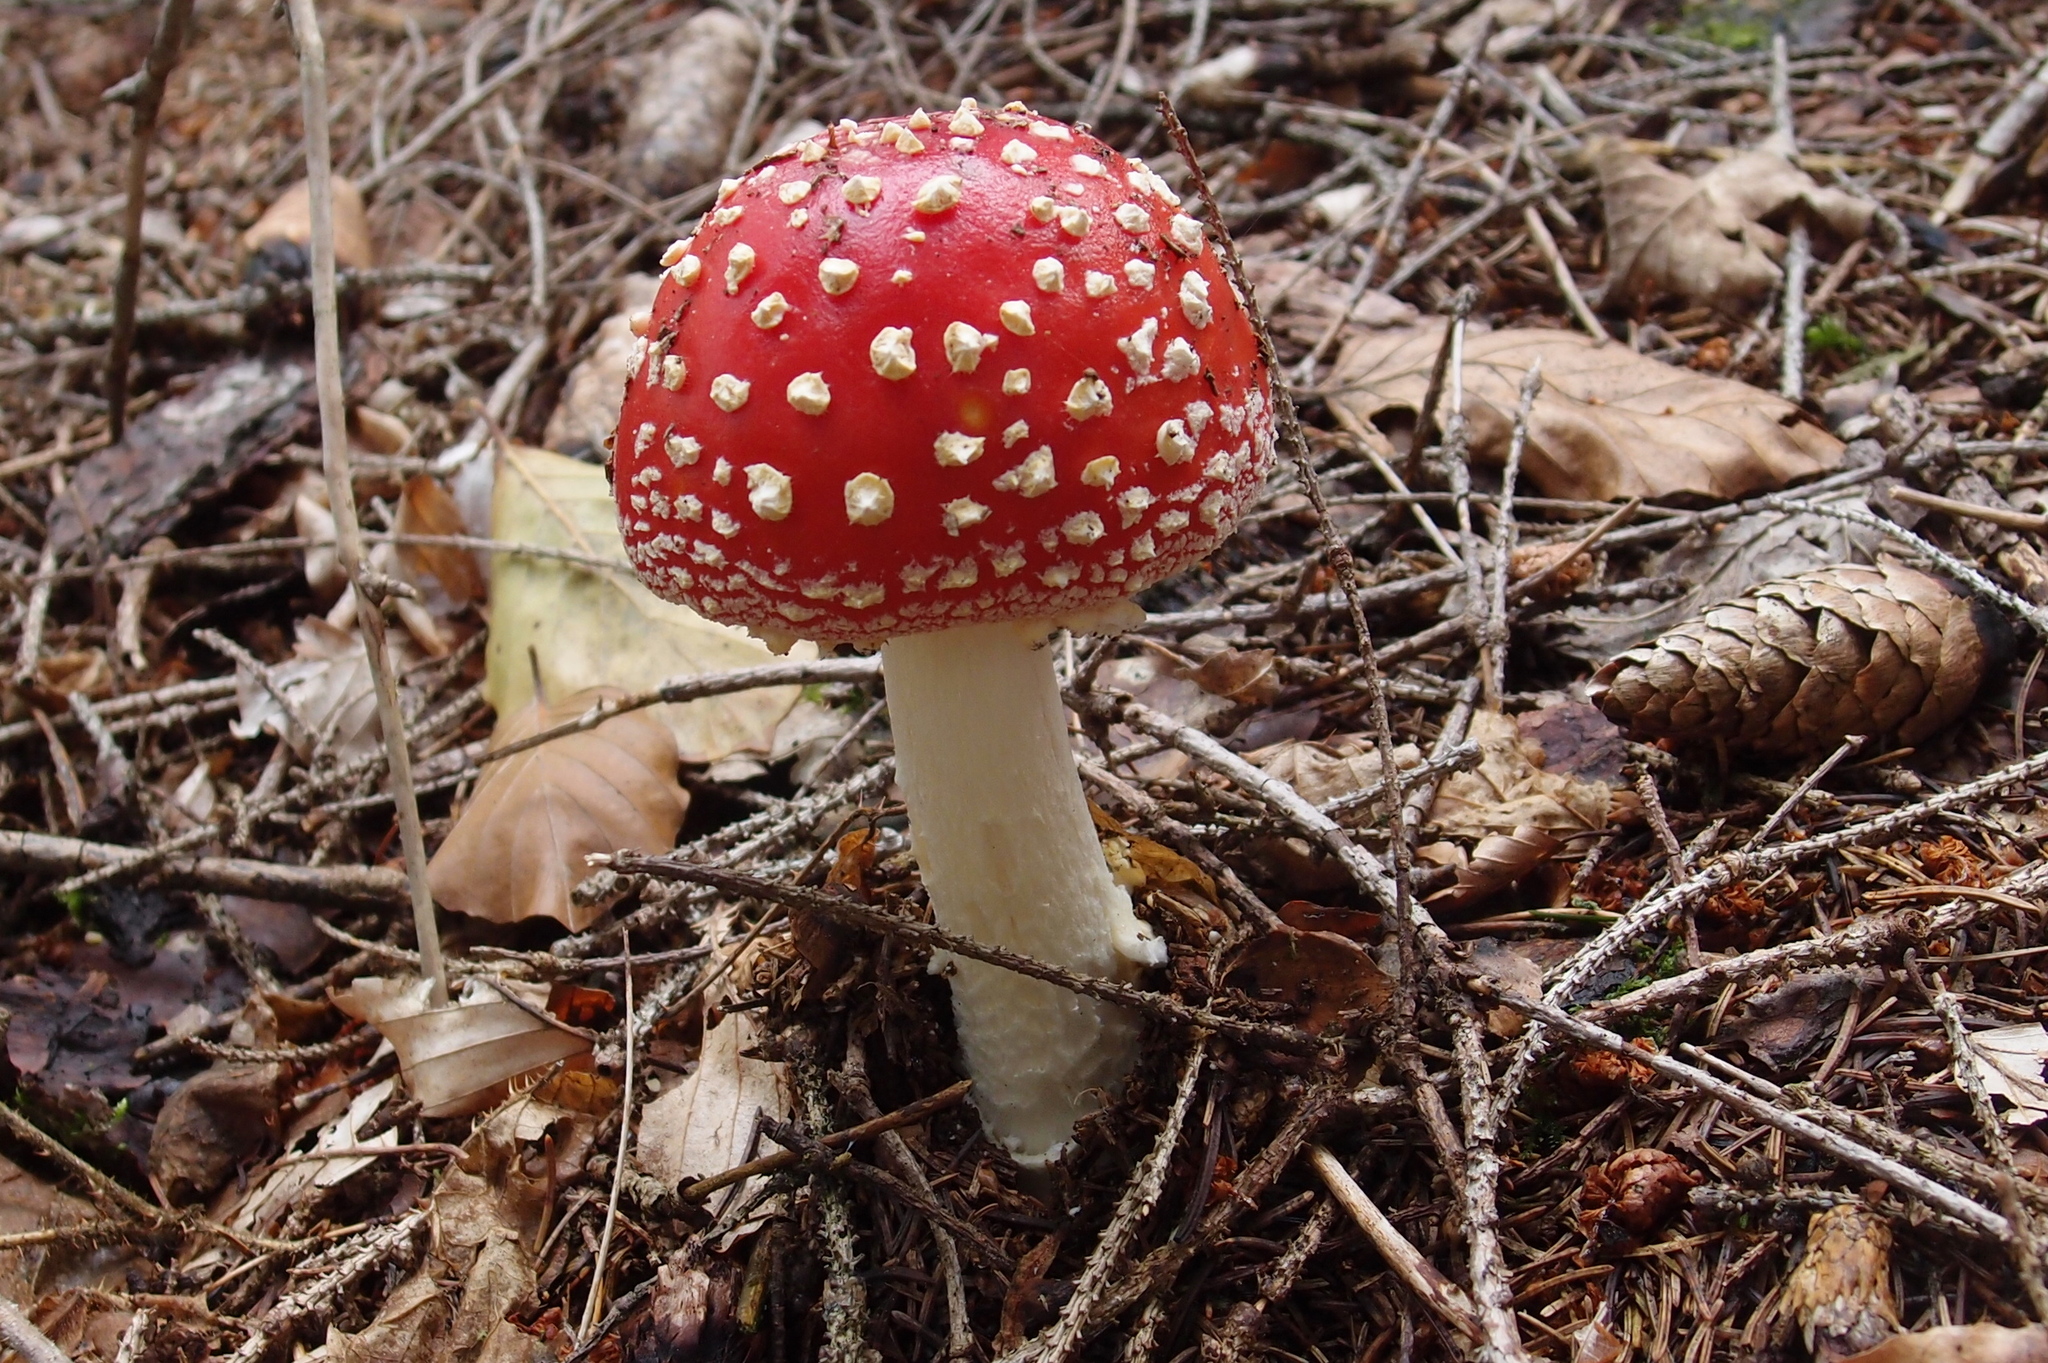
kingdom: Fungi
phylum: Basidiomycota
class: Agaricomycetes
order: Agaricales
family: Amanitaceae
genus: Amanita
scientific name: Amanita muscaria
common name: Fly agaric
